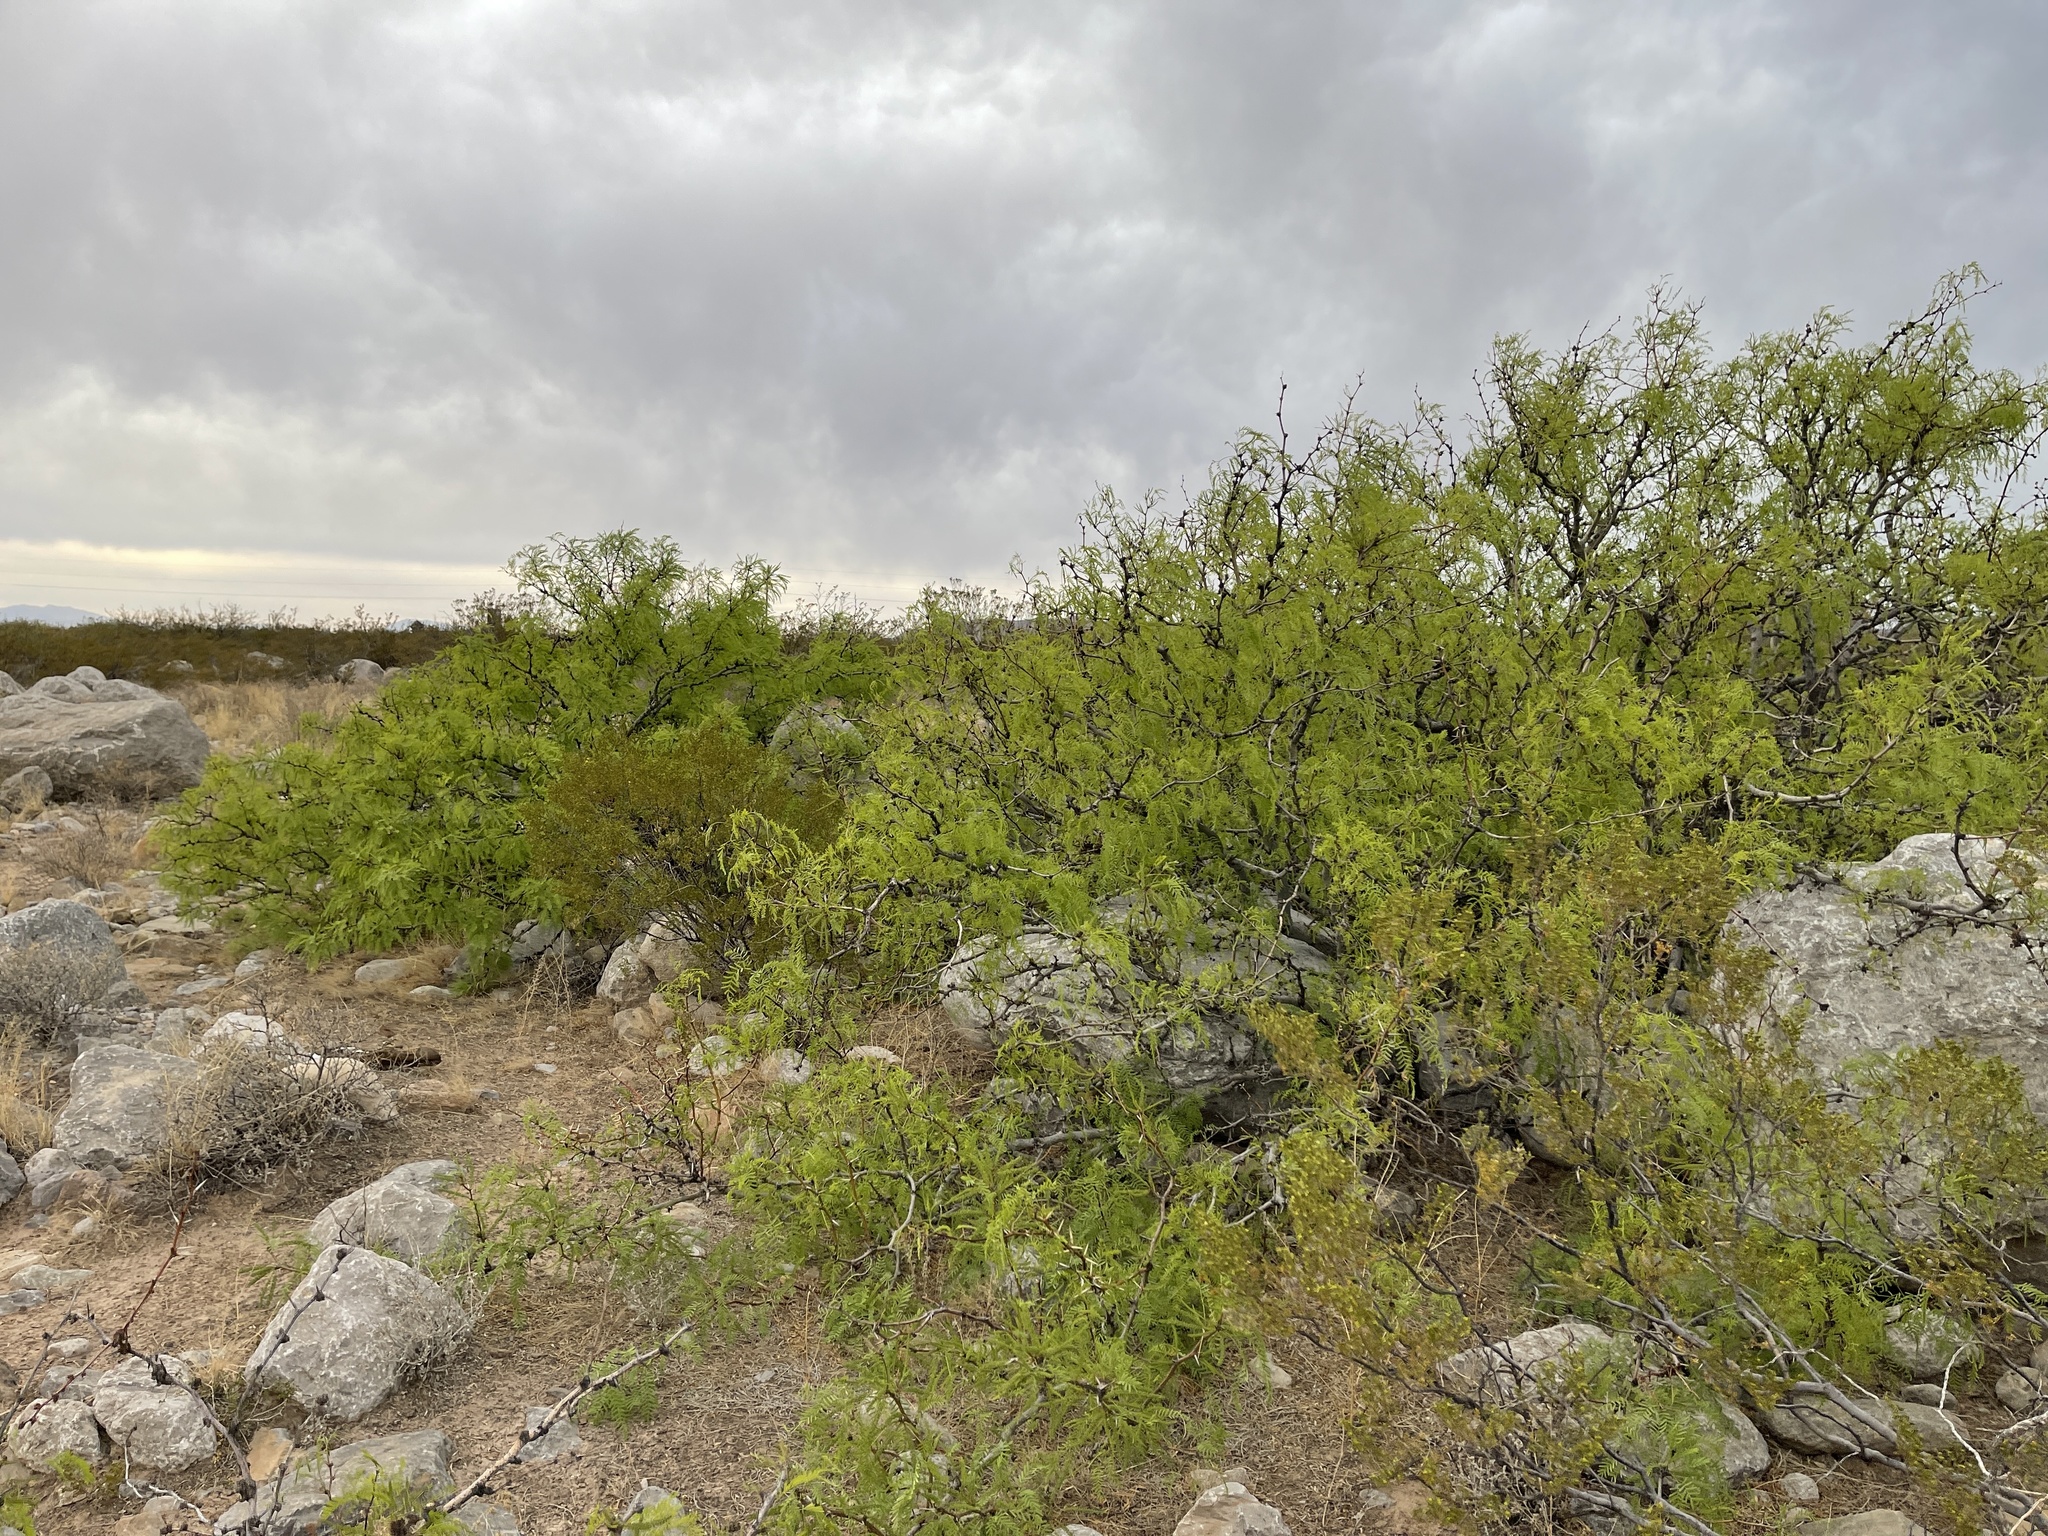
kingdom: Plantae
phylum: Tracheophyta
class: Magnoliopsida
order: Fabales
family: Fabaceae
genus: Prosopis
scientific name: Prosopis glandulosa
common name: Honey mesquite
